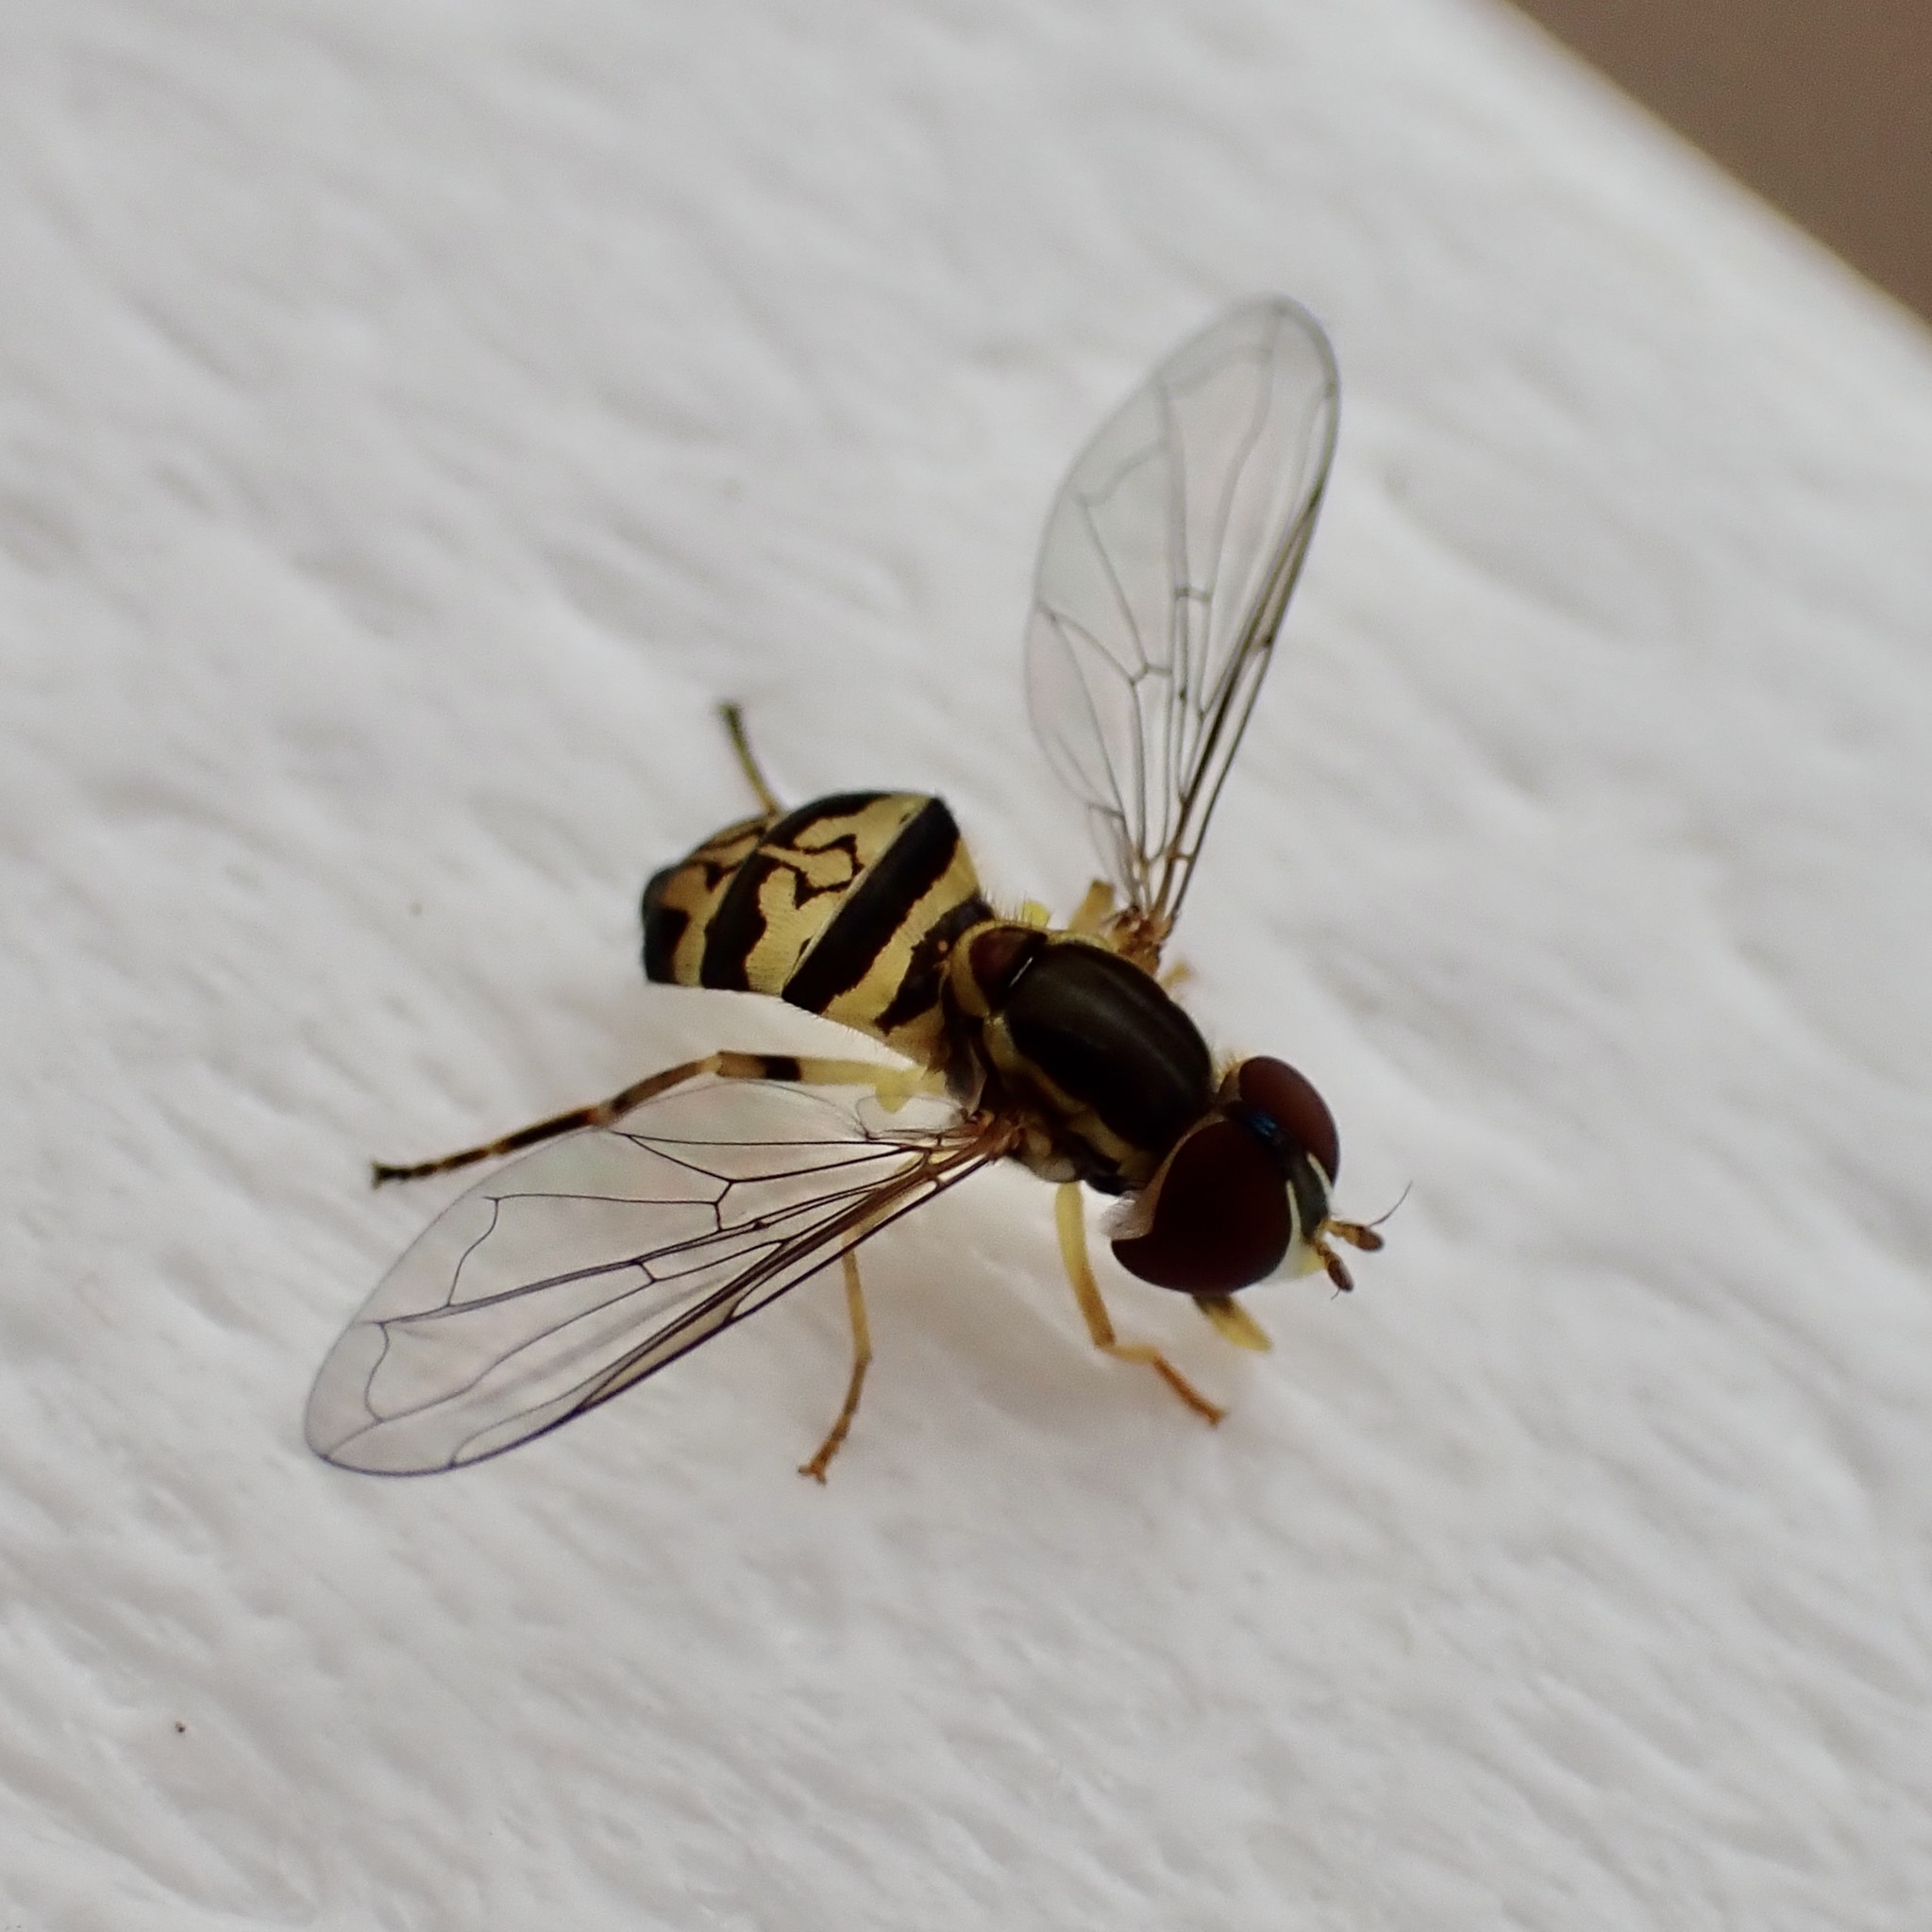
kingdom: Animalia
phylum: Arthropoda
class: Insecta
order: Diptera
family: Syrphidae
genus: Toxomerus
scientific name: Toxomerus geminatus
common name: Eastern calligrapher
